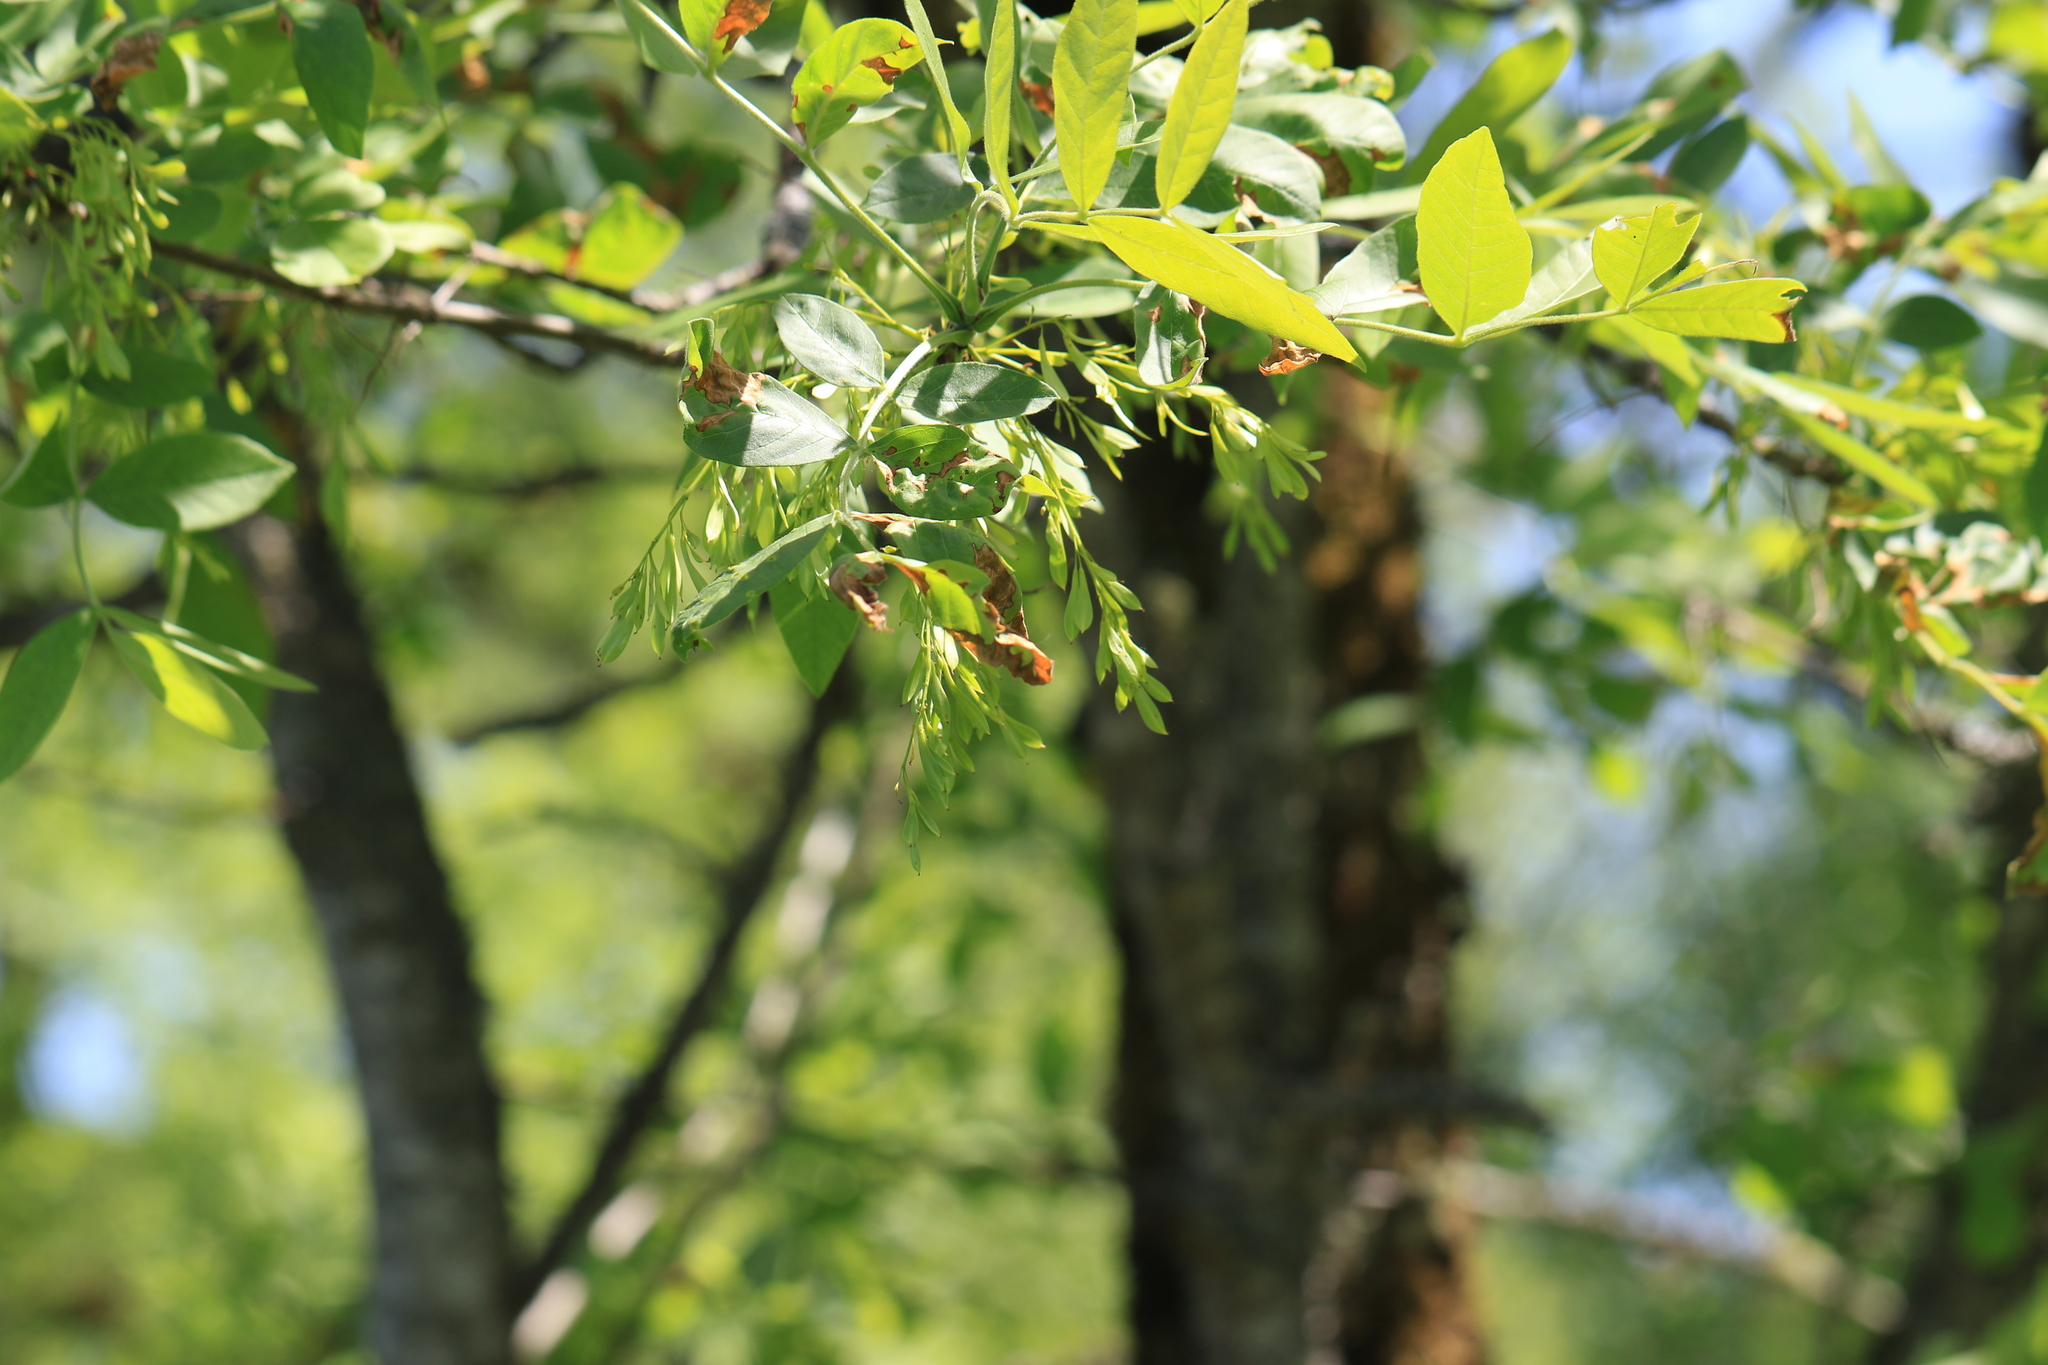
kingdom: Plantae
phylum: Tracheophyta
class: Magnoliopsida
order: Lamiales
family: Oleaceae
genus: Fraxinus
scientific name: Fraxinus latifolia
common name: Oregon ash
